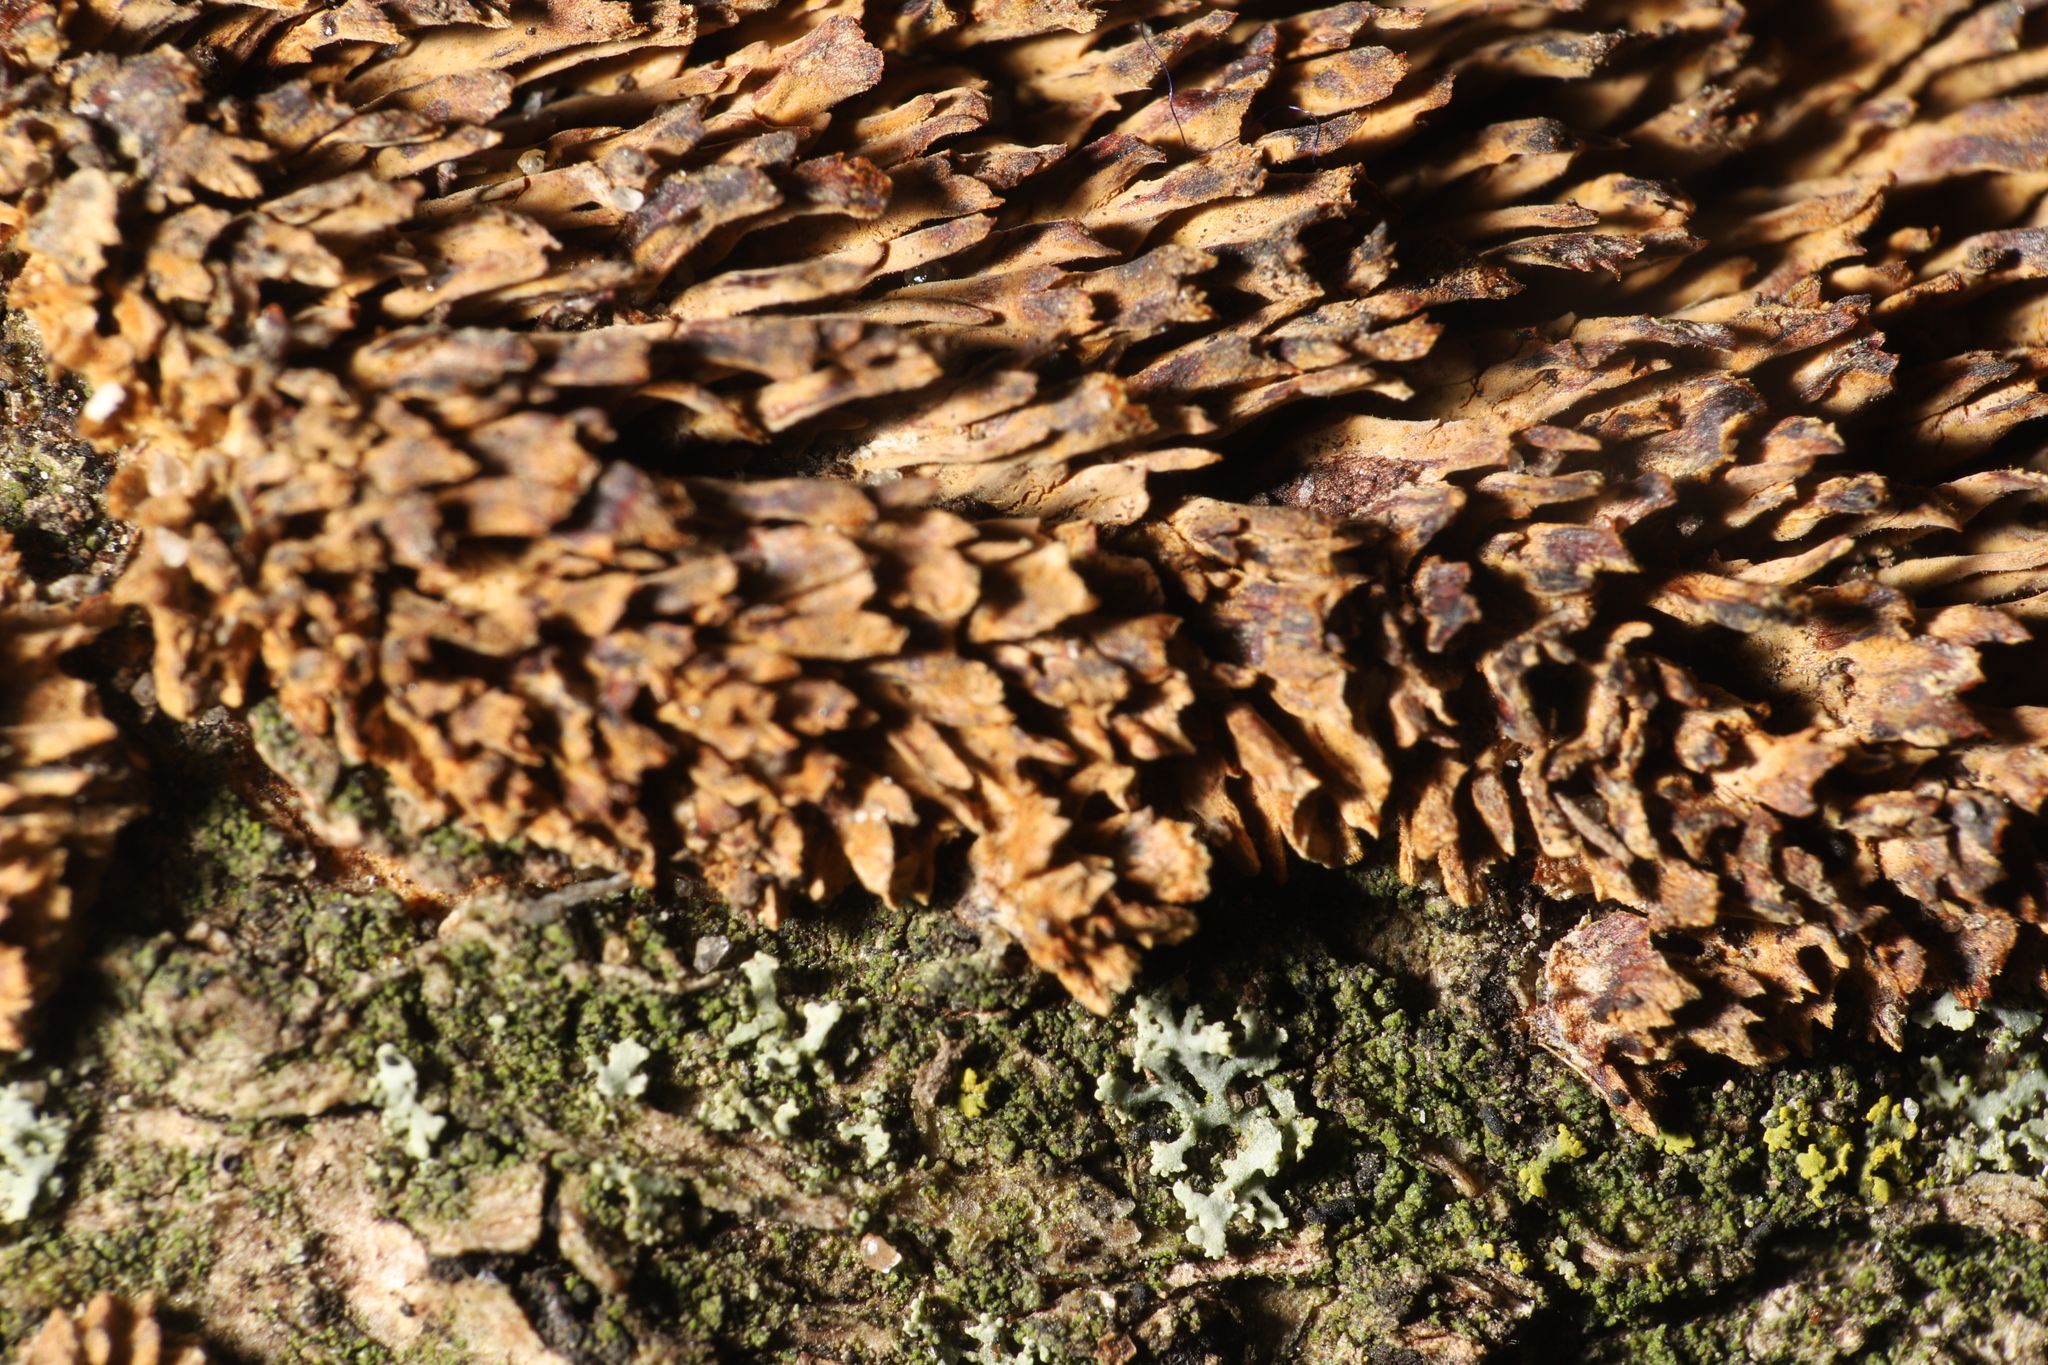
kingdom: Fungi
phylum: Basidiomycota
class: Agaricomycetes
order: Hymenochaetales
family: Hymenochaetaceae
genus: Hydnoporia
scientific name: Hydnoporia olivacea
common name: Brown-toothed crust fungus
